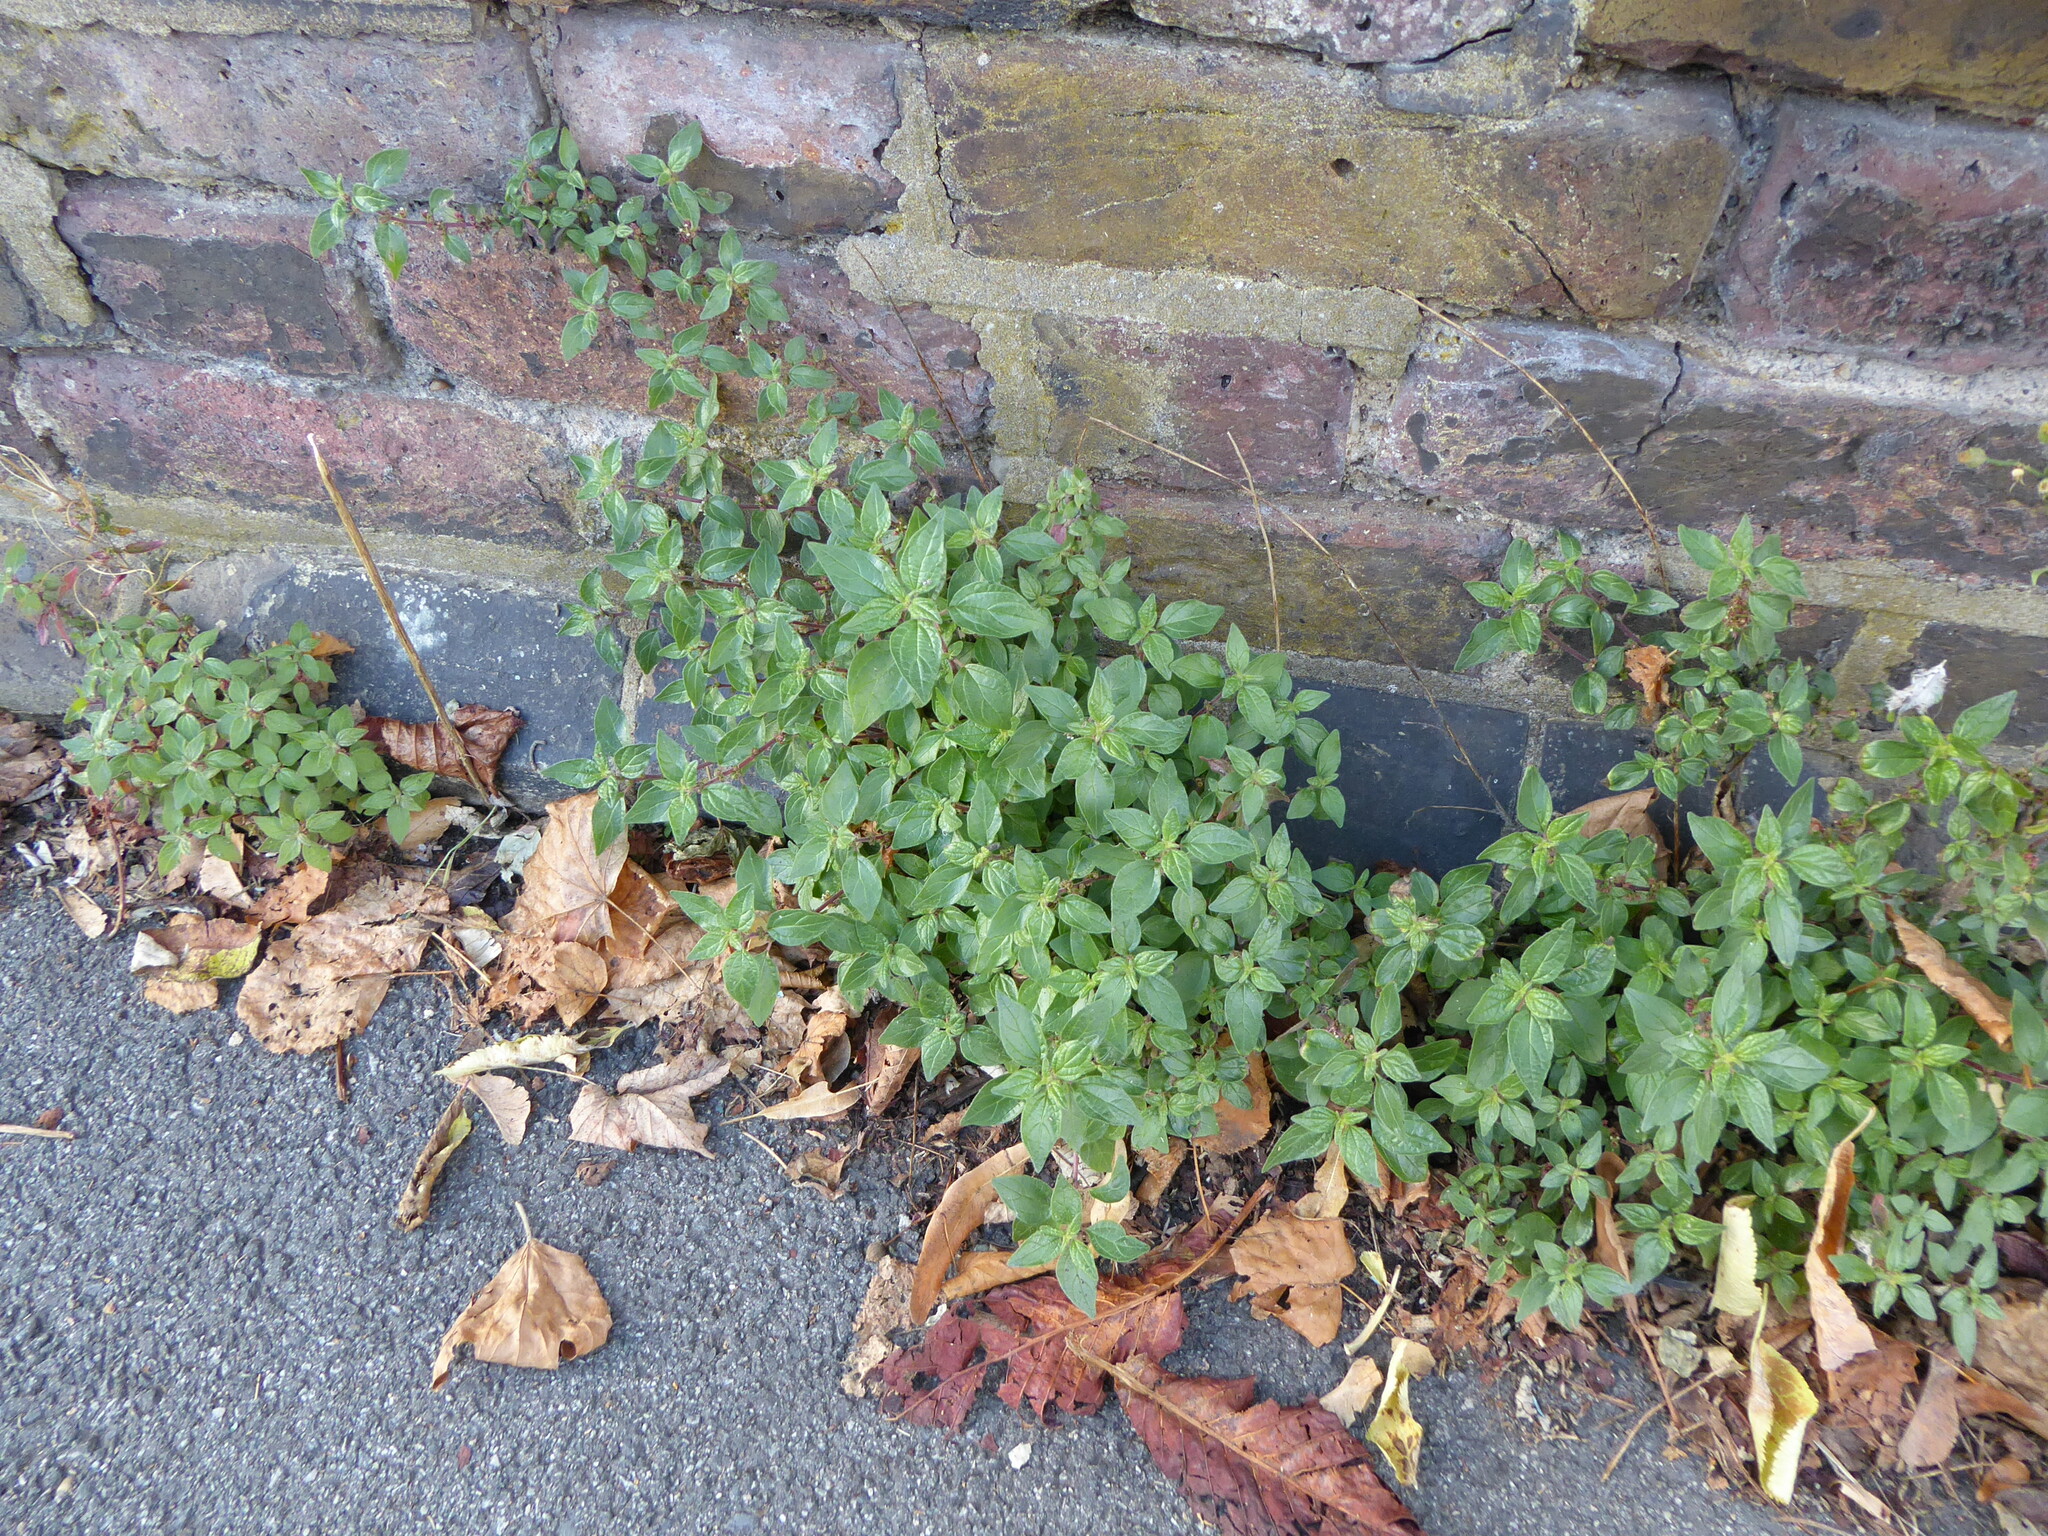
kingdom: Plantae
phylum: Tracheophyta
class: Magnoliopsida
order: Rosales
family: Urticaceae
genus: Parietaria
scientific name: Parietaria judaica
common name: Pellitory-of-the-wall
